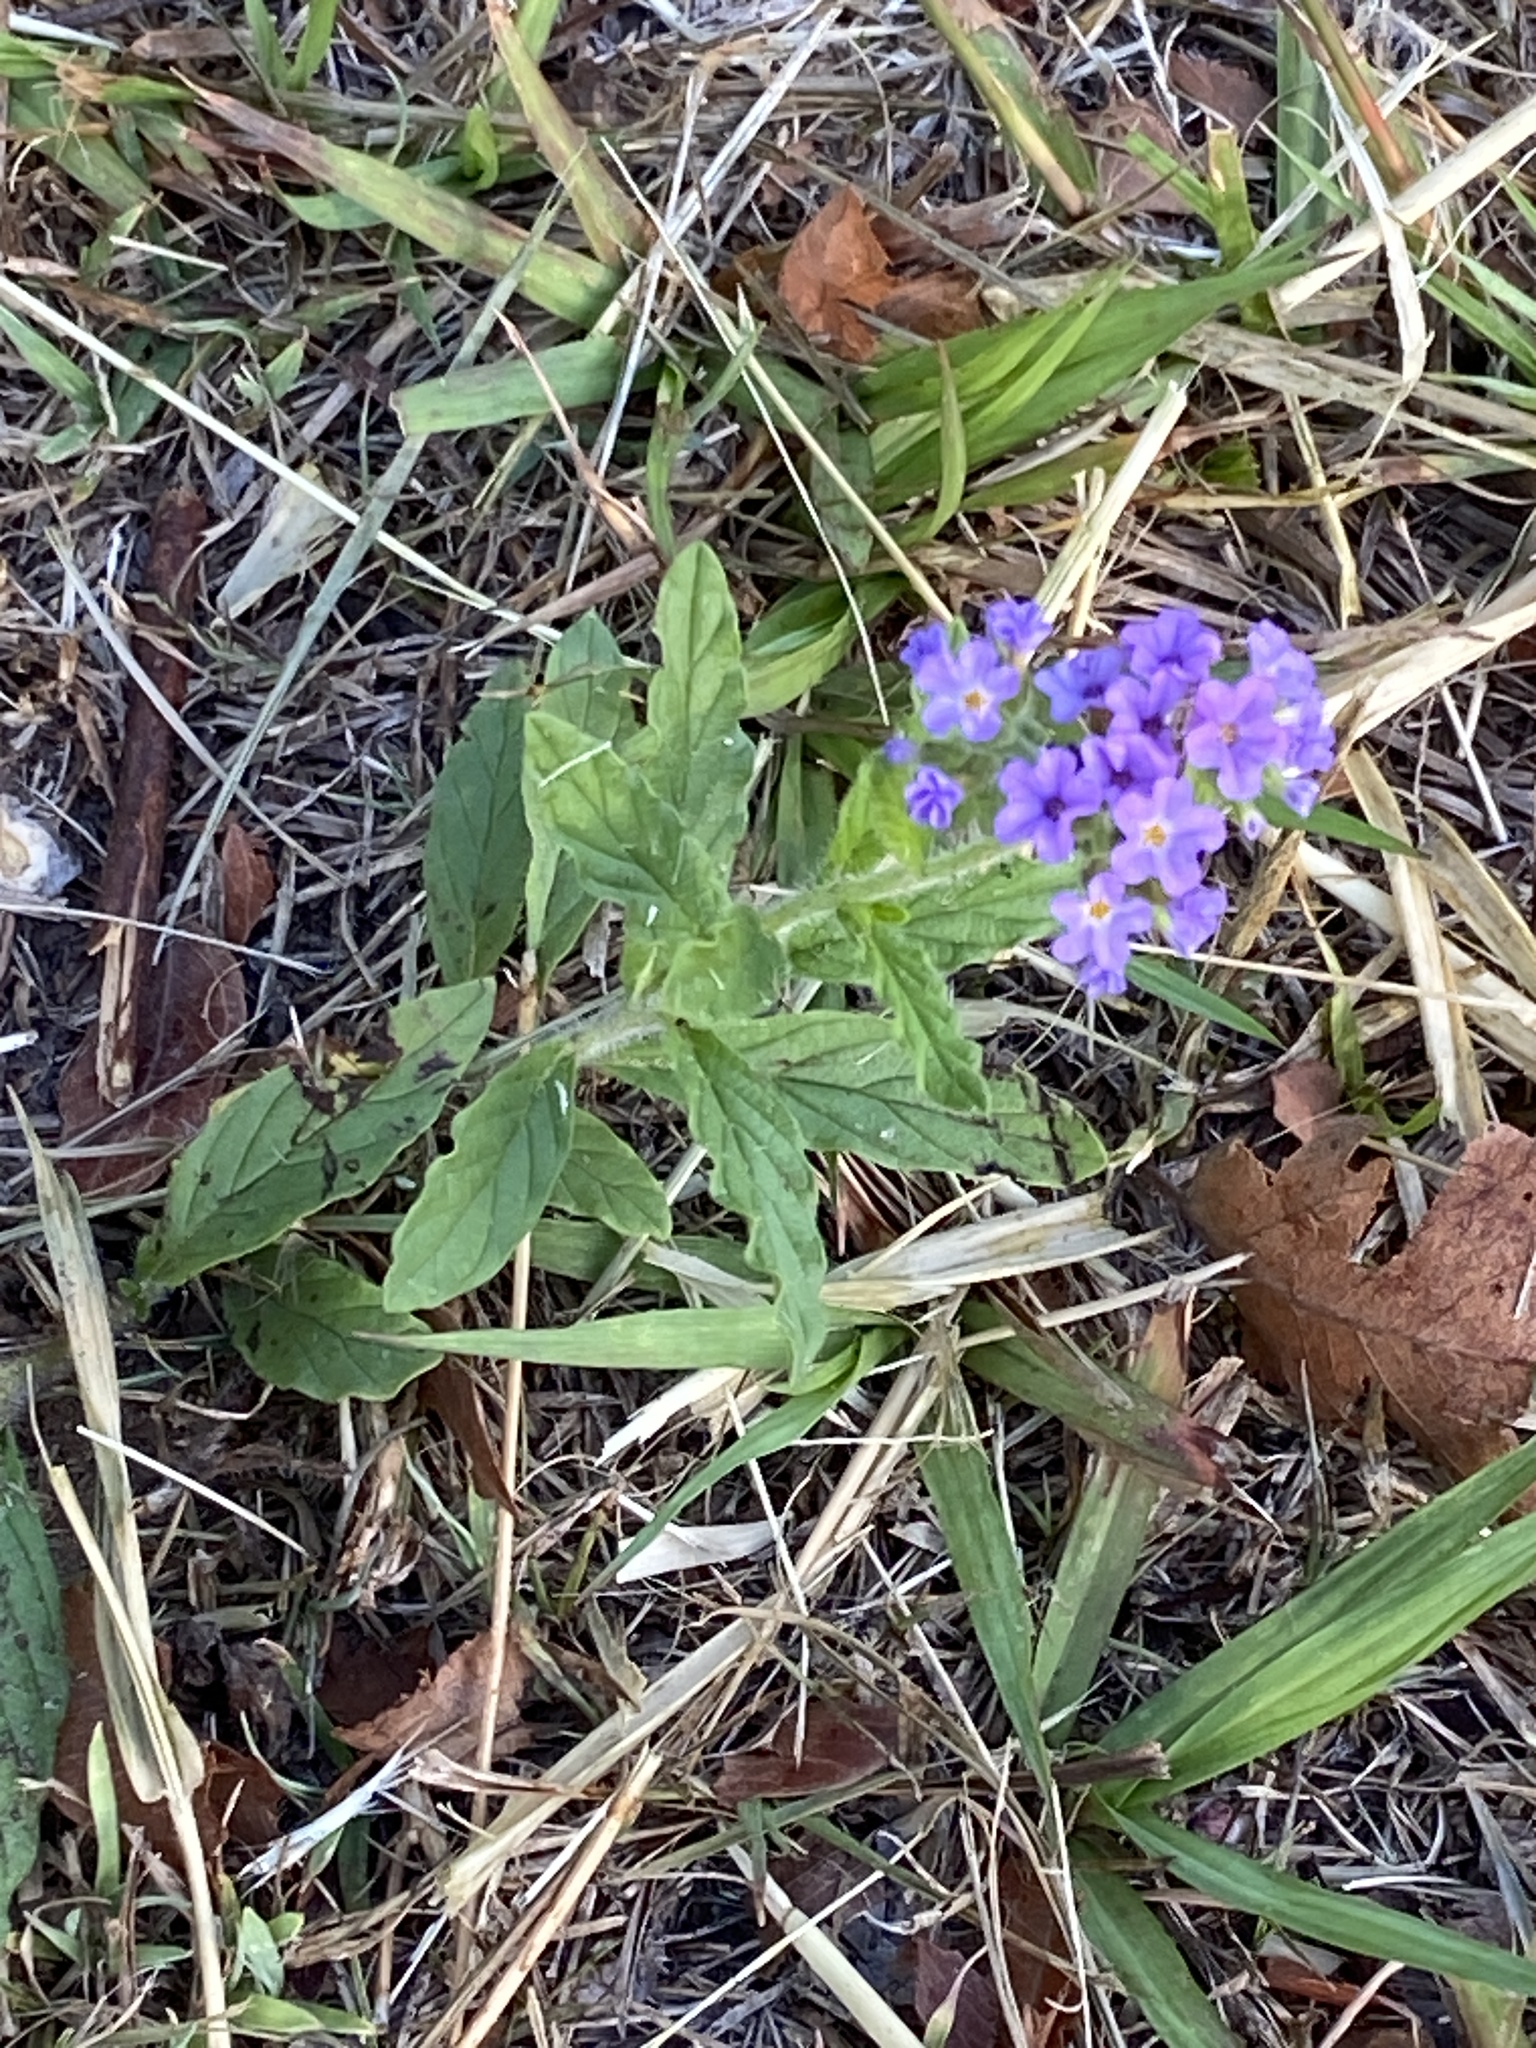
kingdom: Plantae
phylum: Tracheophyta
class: Magnoliopsida
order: Boraginales
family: Heliotropiaceae
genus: Heliotropium
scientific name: Heliotropium amplexicaule
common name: Clasping heliotrope
